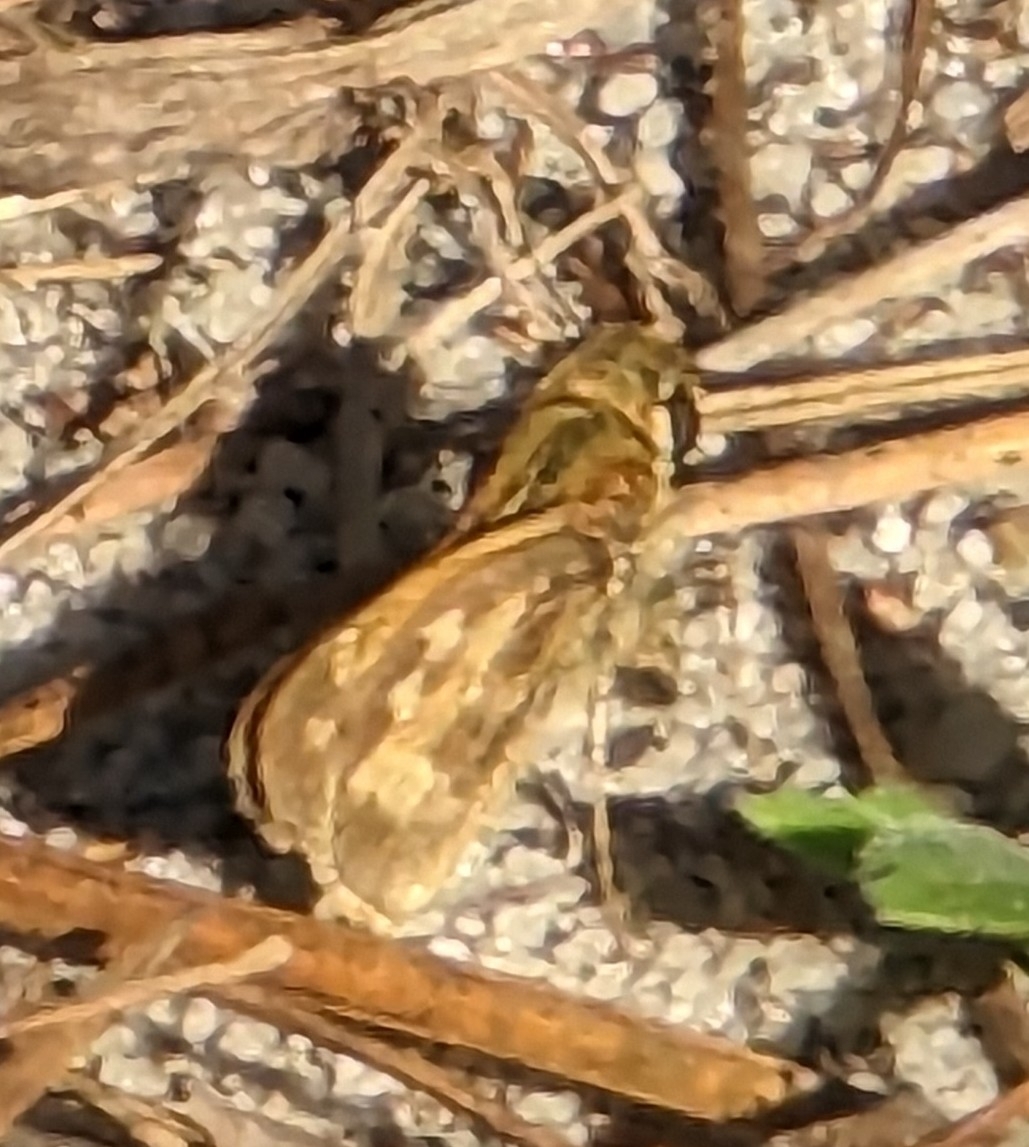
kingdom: Animalia
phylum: Arthropoda
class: Insecta
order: Lepidoptera
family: Hesperiidae
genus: Atalopedes
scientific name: Atalopedes
